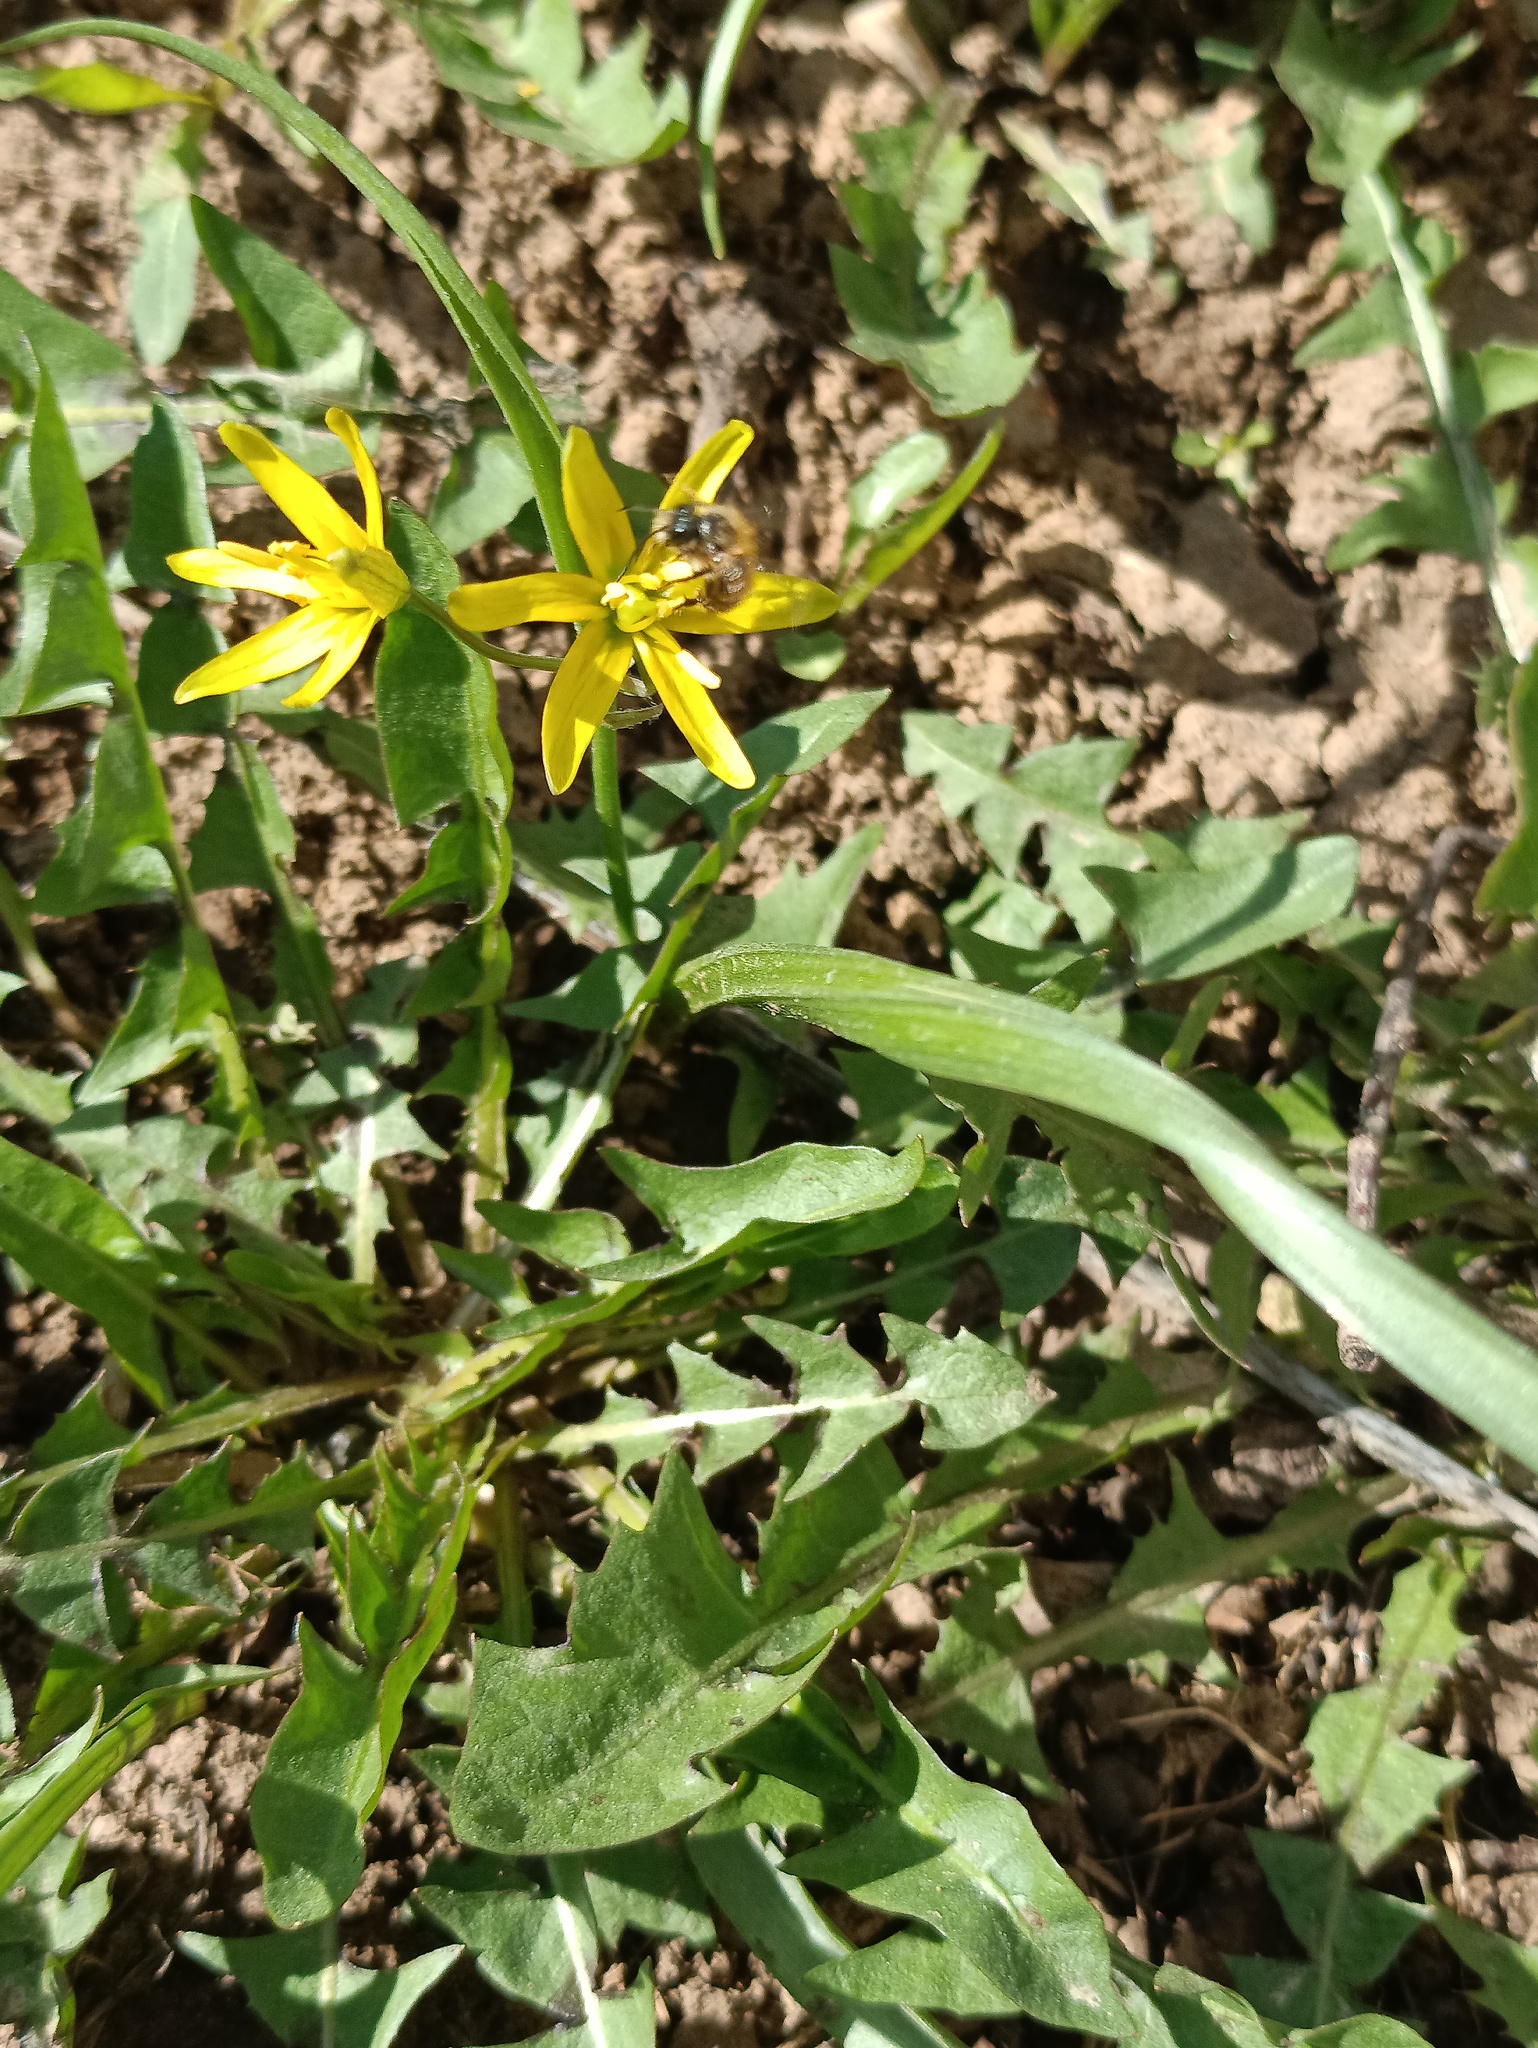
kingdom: Plantae
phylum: Tracheophyta
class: Liliopsida
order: Liliales
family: Liliaceae
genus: Gagea
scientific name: Gagea lutea
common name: Yellow star-of-bethlehem
